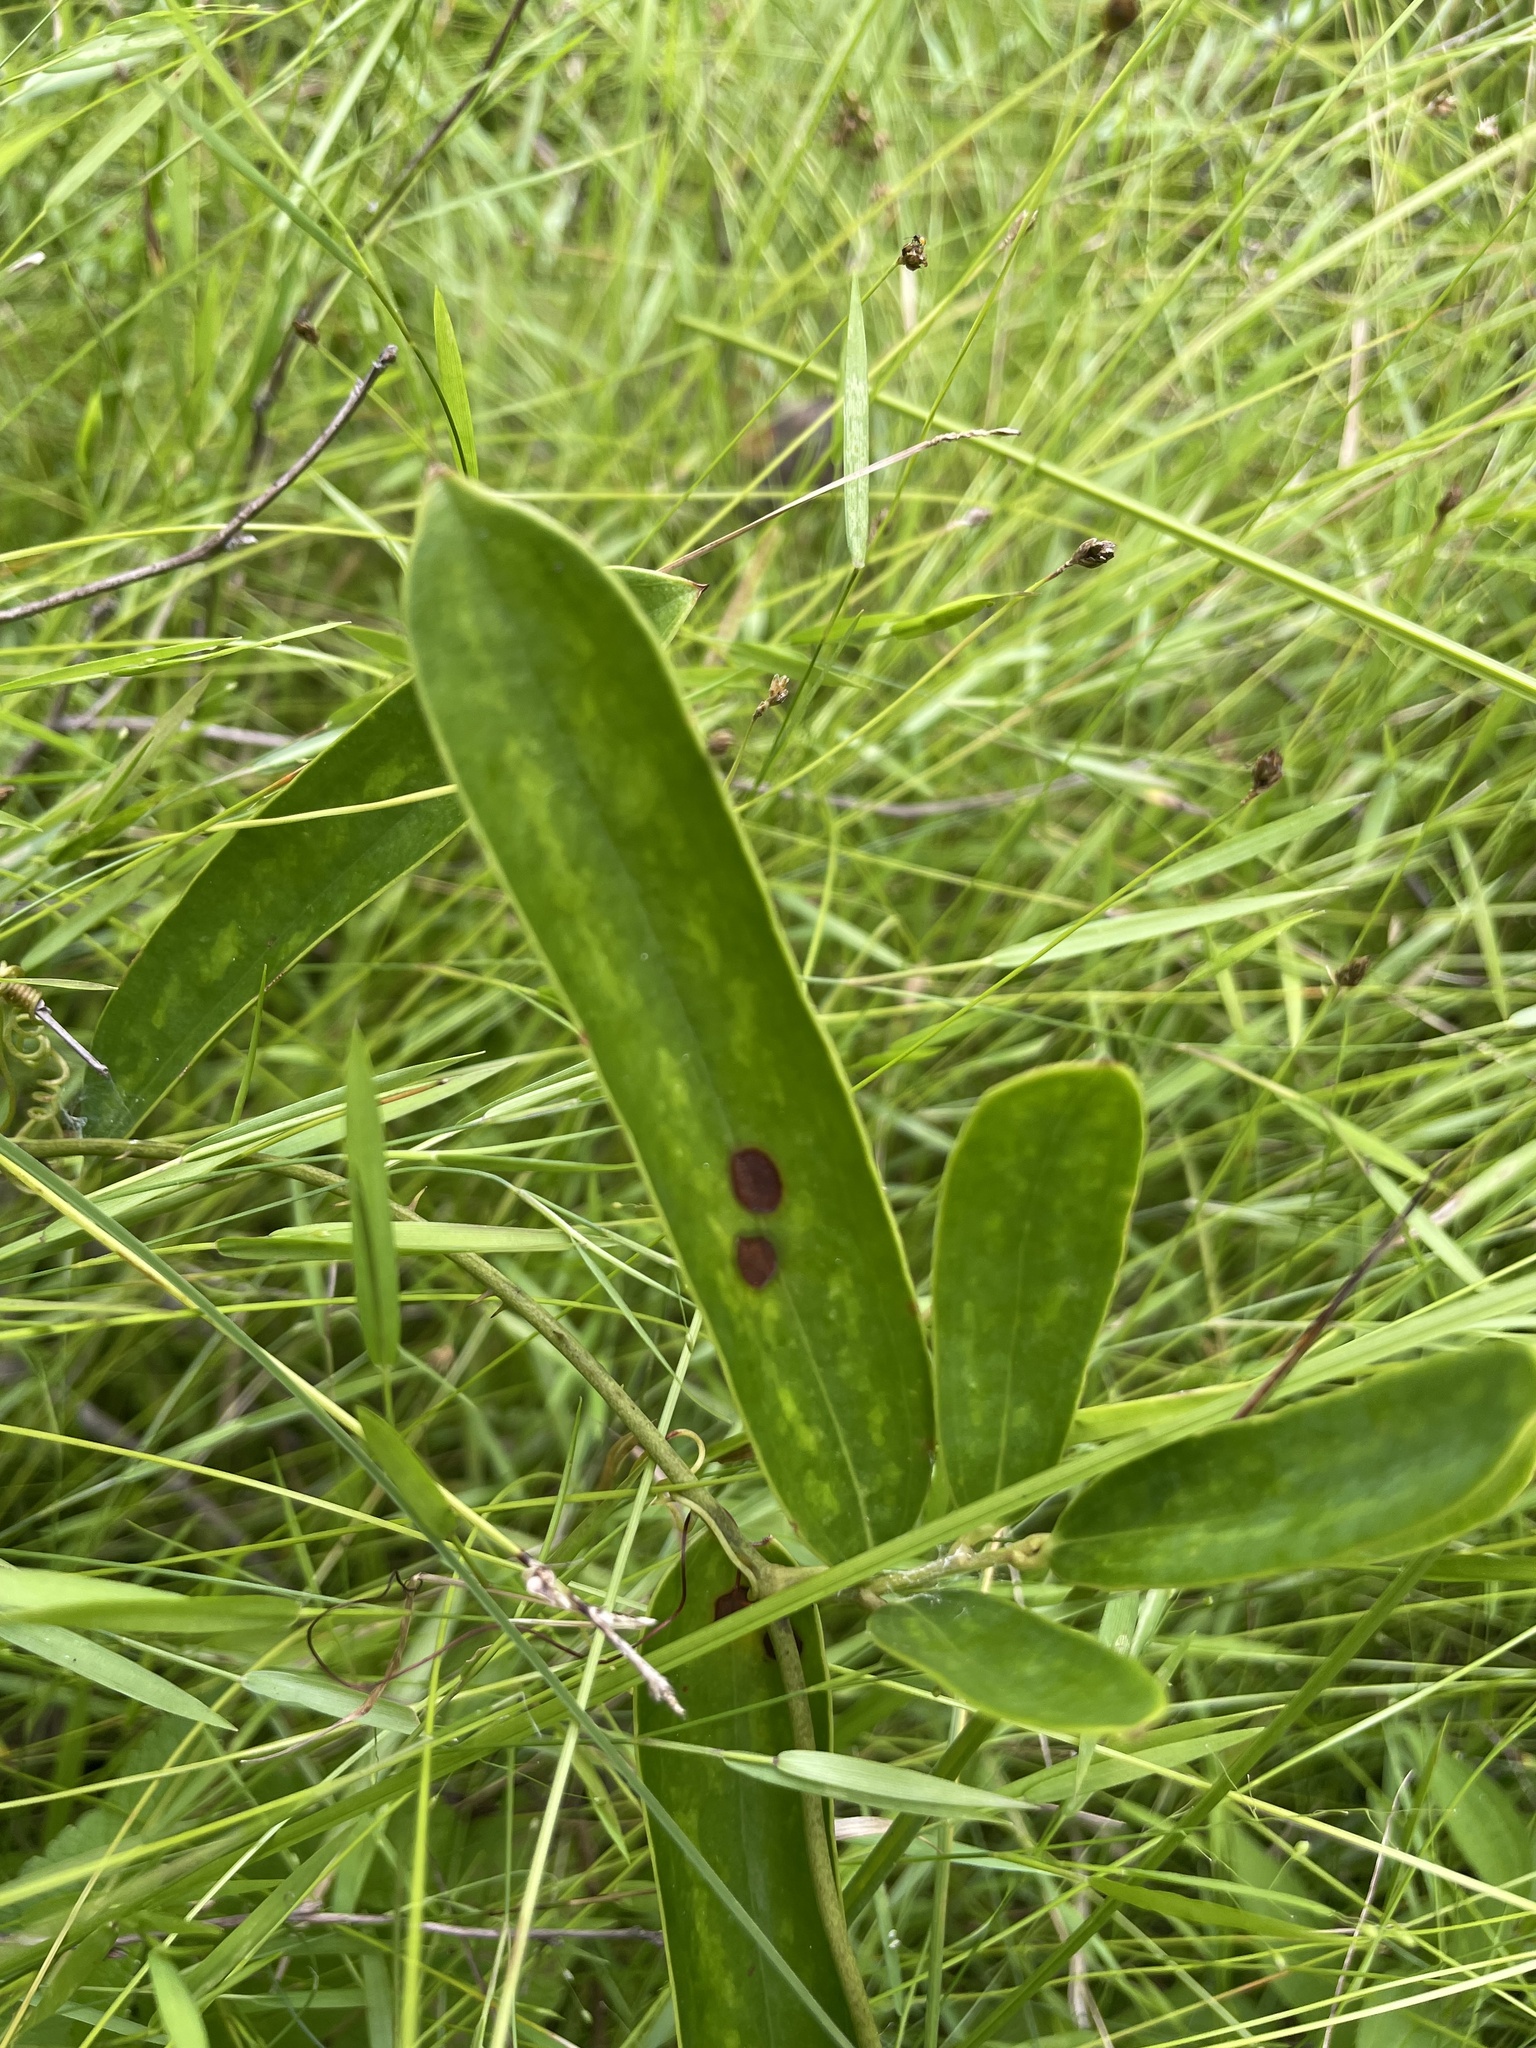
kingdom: Plantae
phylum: Tracheophyta
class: Liliopsida
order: Liliales
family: Smilacaceae
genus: Smilax
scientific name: Smilax laurifolia
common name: Bamboovine
